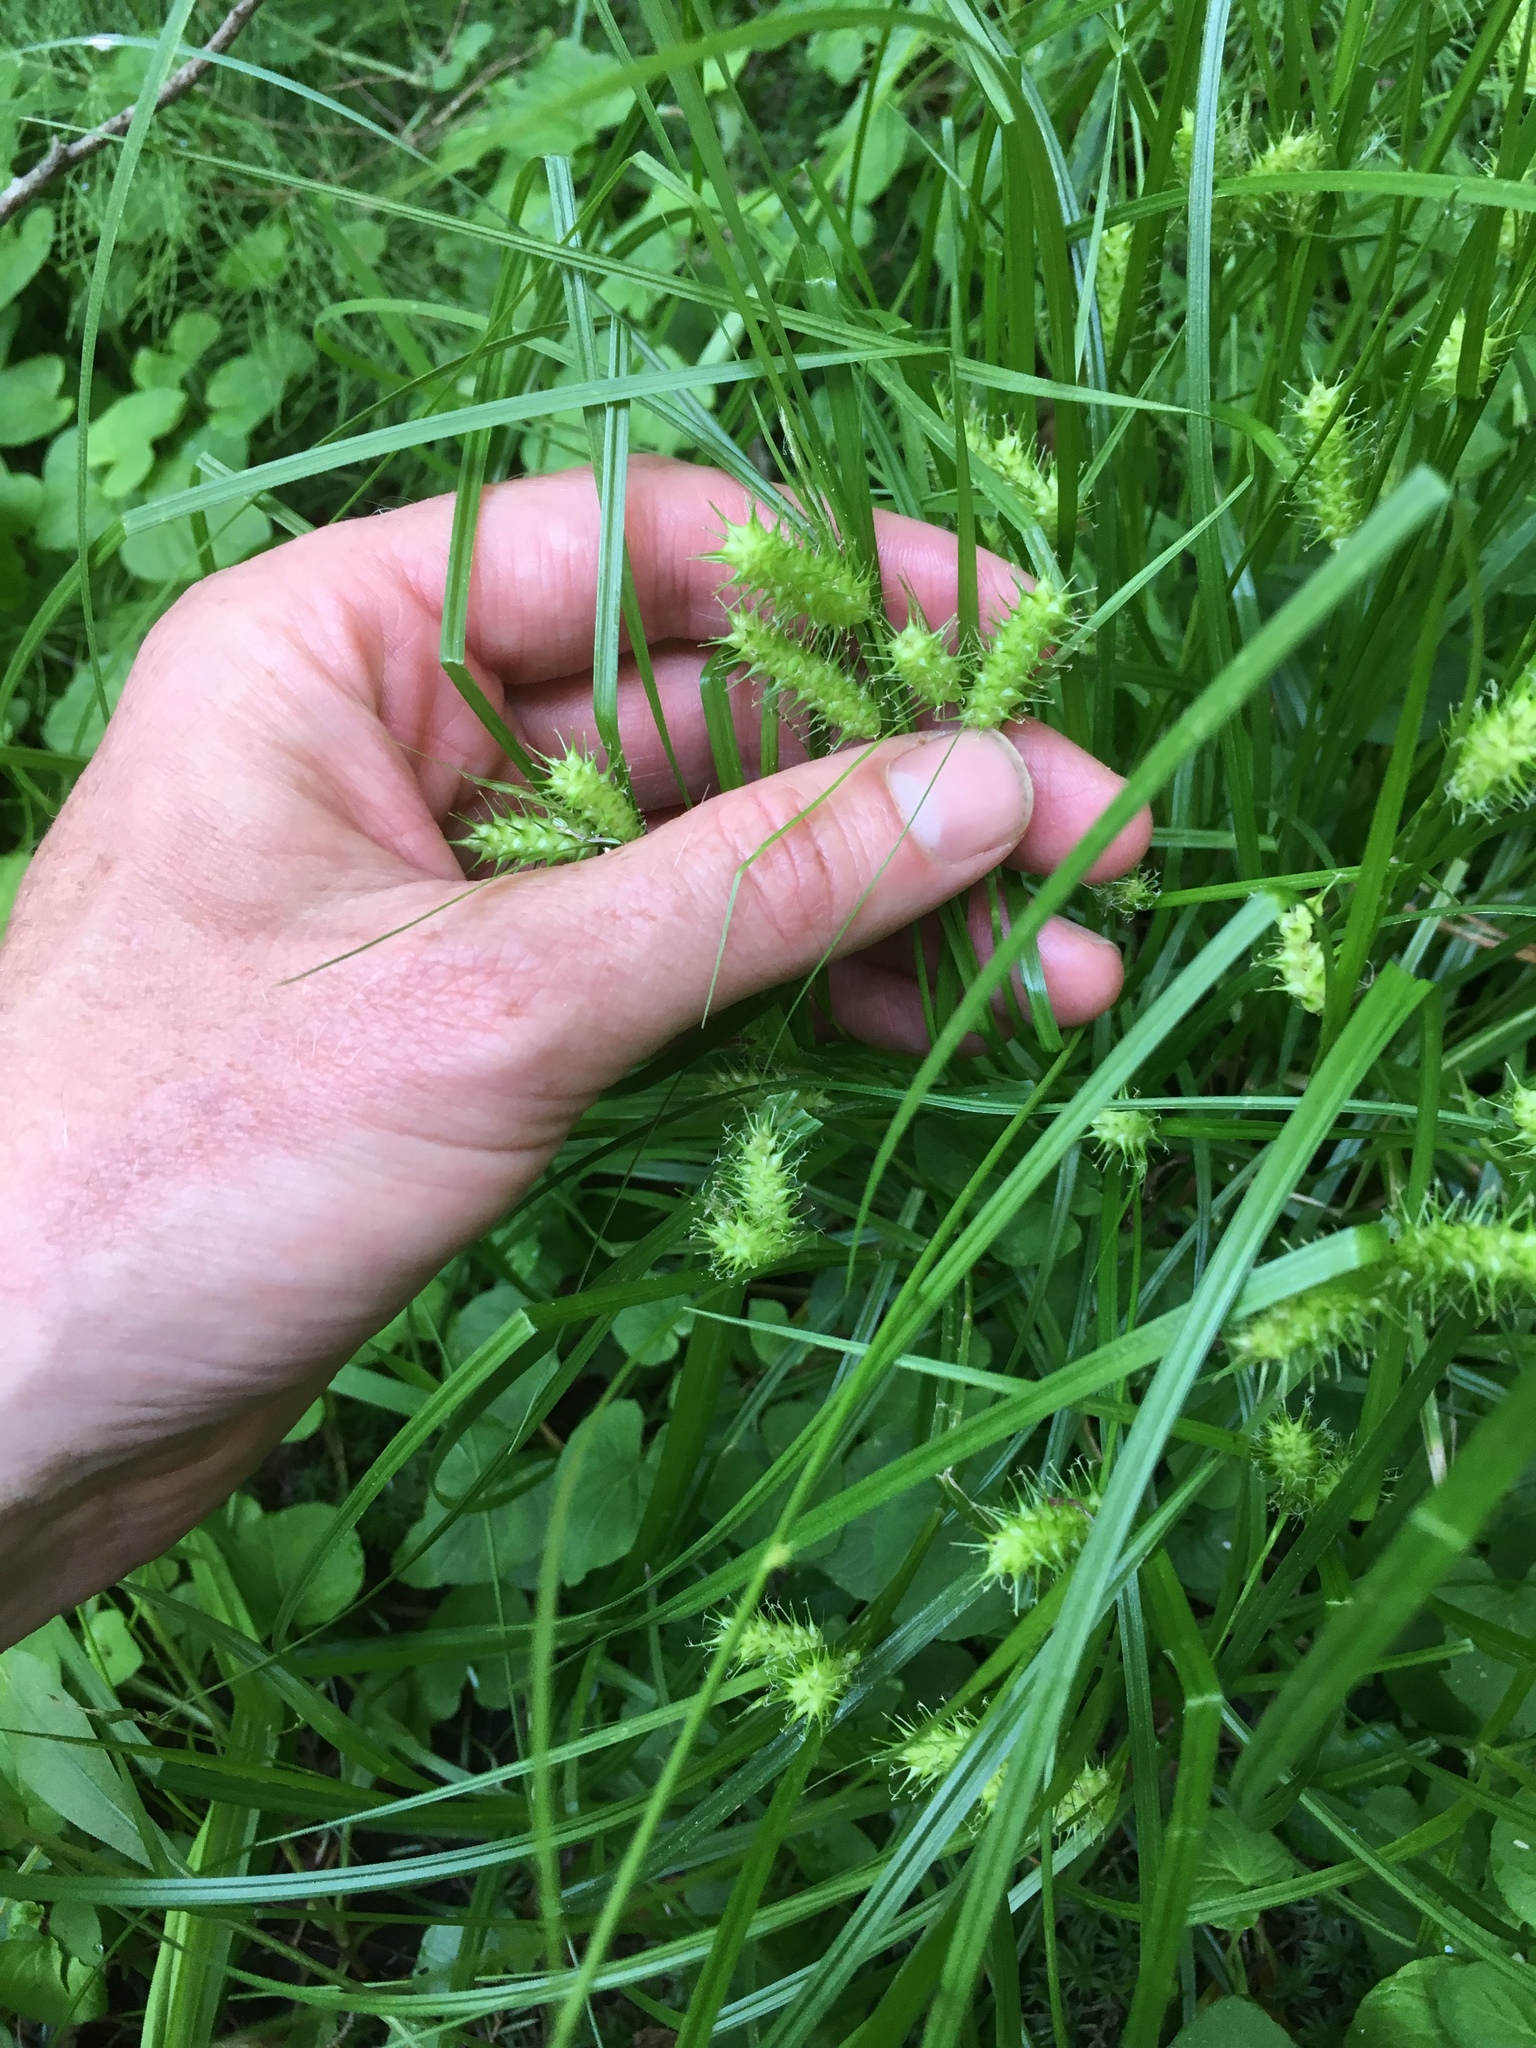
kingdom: Plantae
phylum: Tracheophyta
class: Liliopsida
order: Poales
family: Cyperaceae
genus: Carex
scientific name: Carex baileyi
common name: Bailey's sedge
